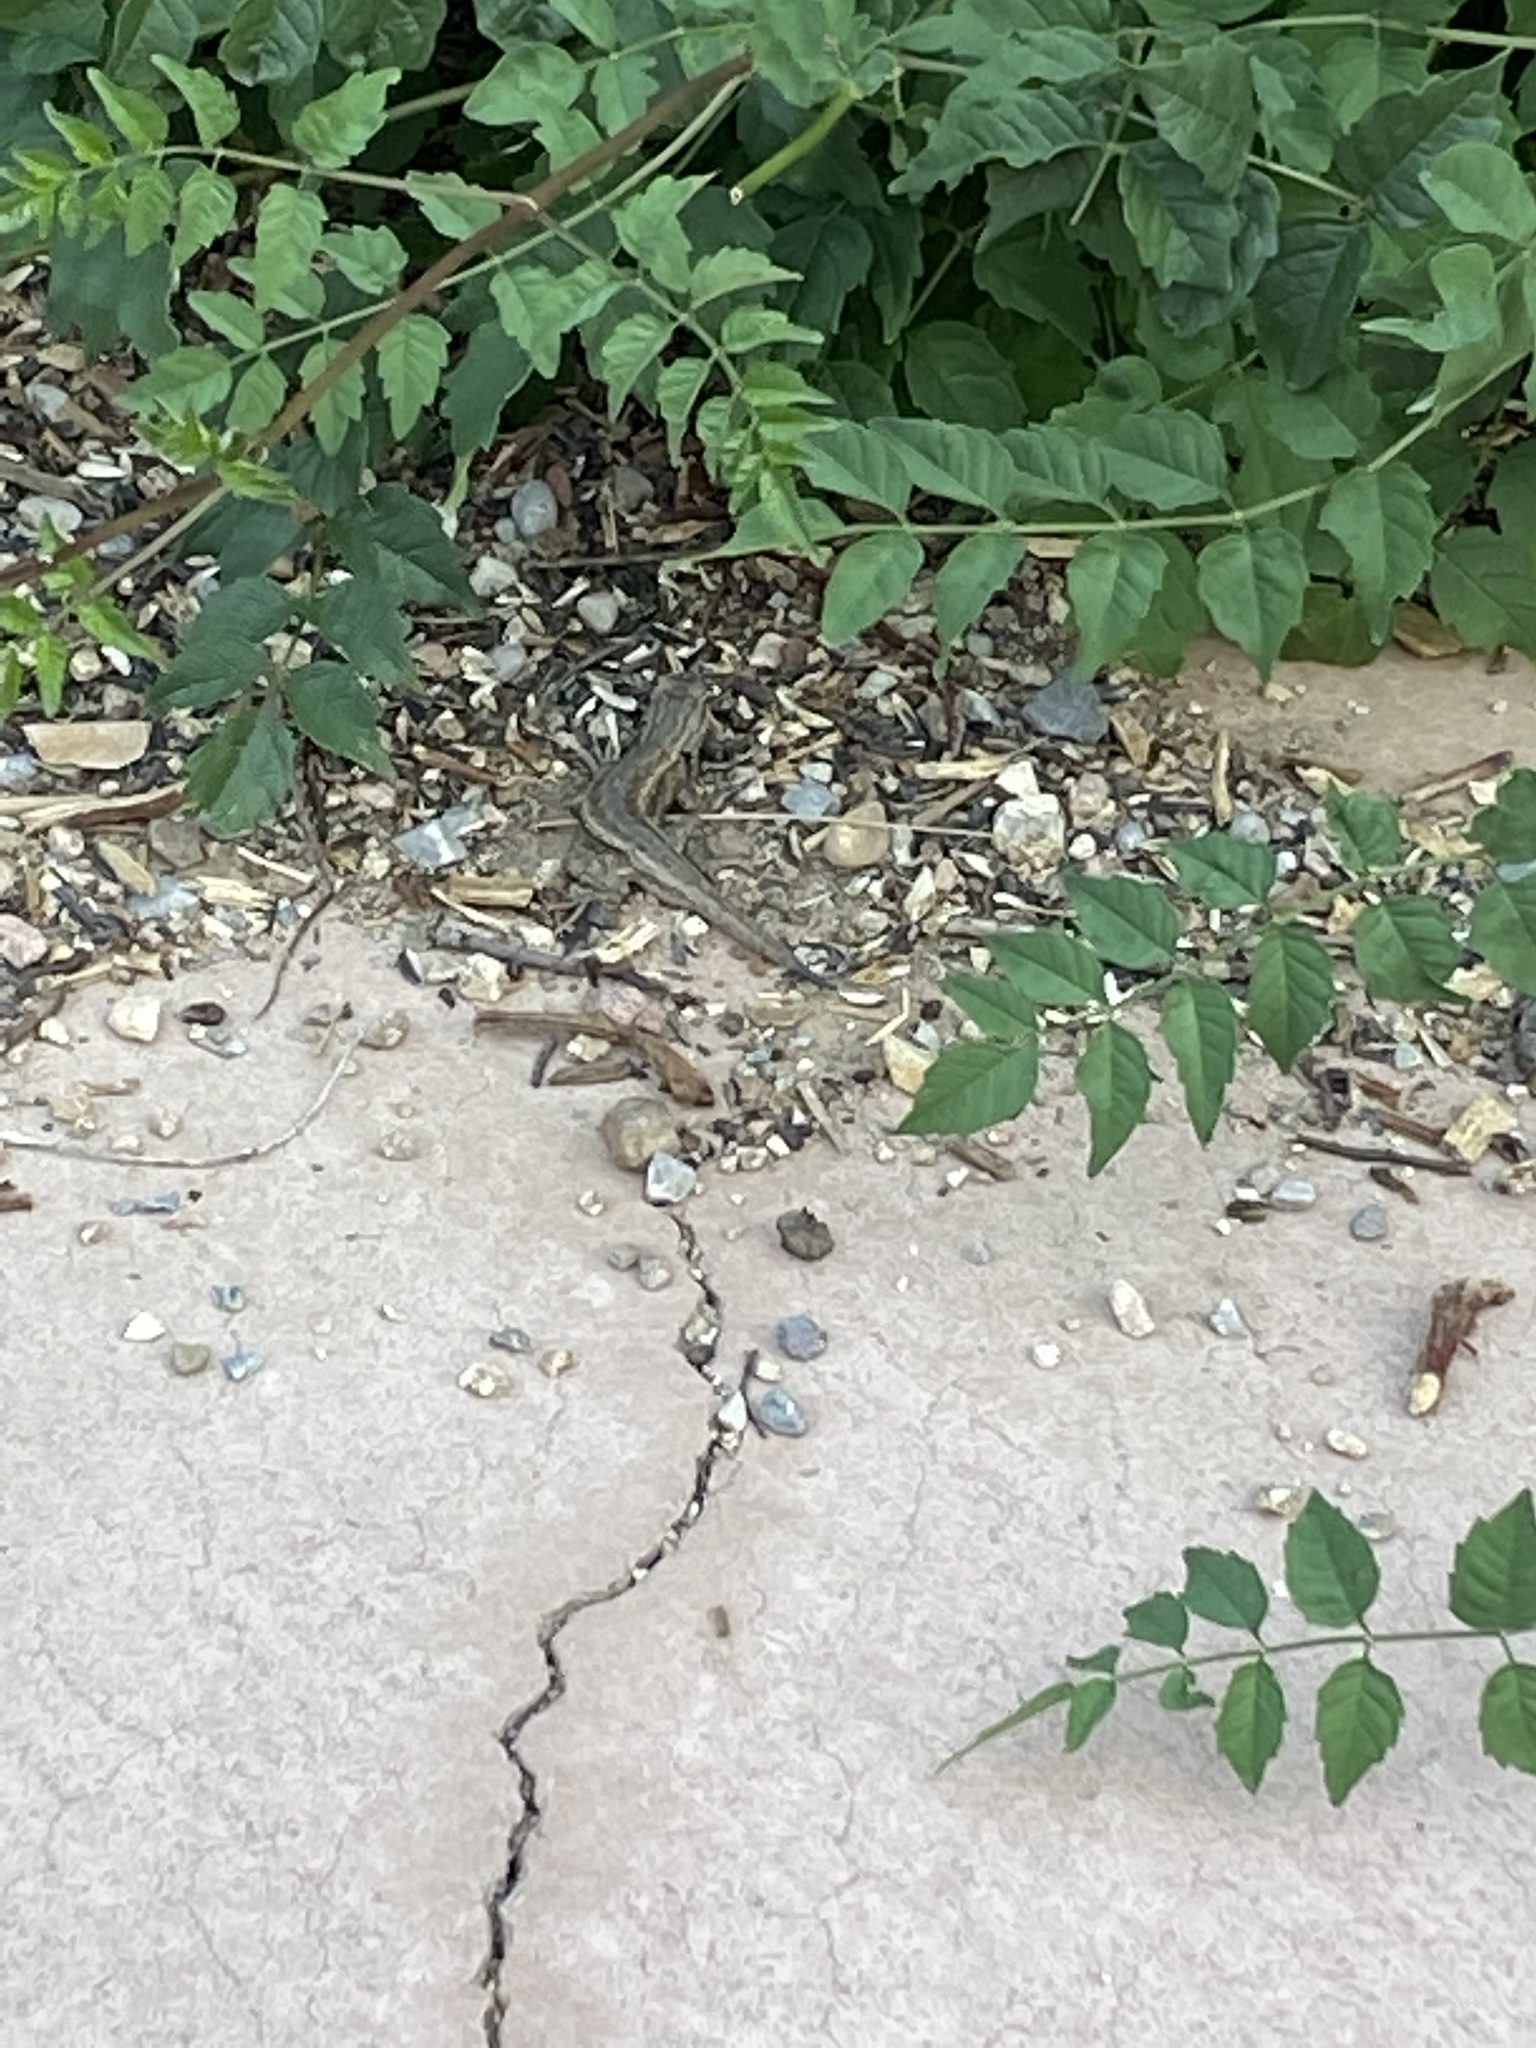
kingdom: Animalia
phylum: Chordata
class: Squamata
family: Phrynosomatidae
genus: Sceloporus
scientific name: Sceloporus cowlesi
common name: White sands prairie lizard
